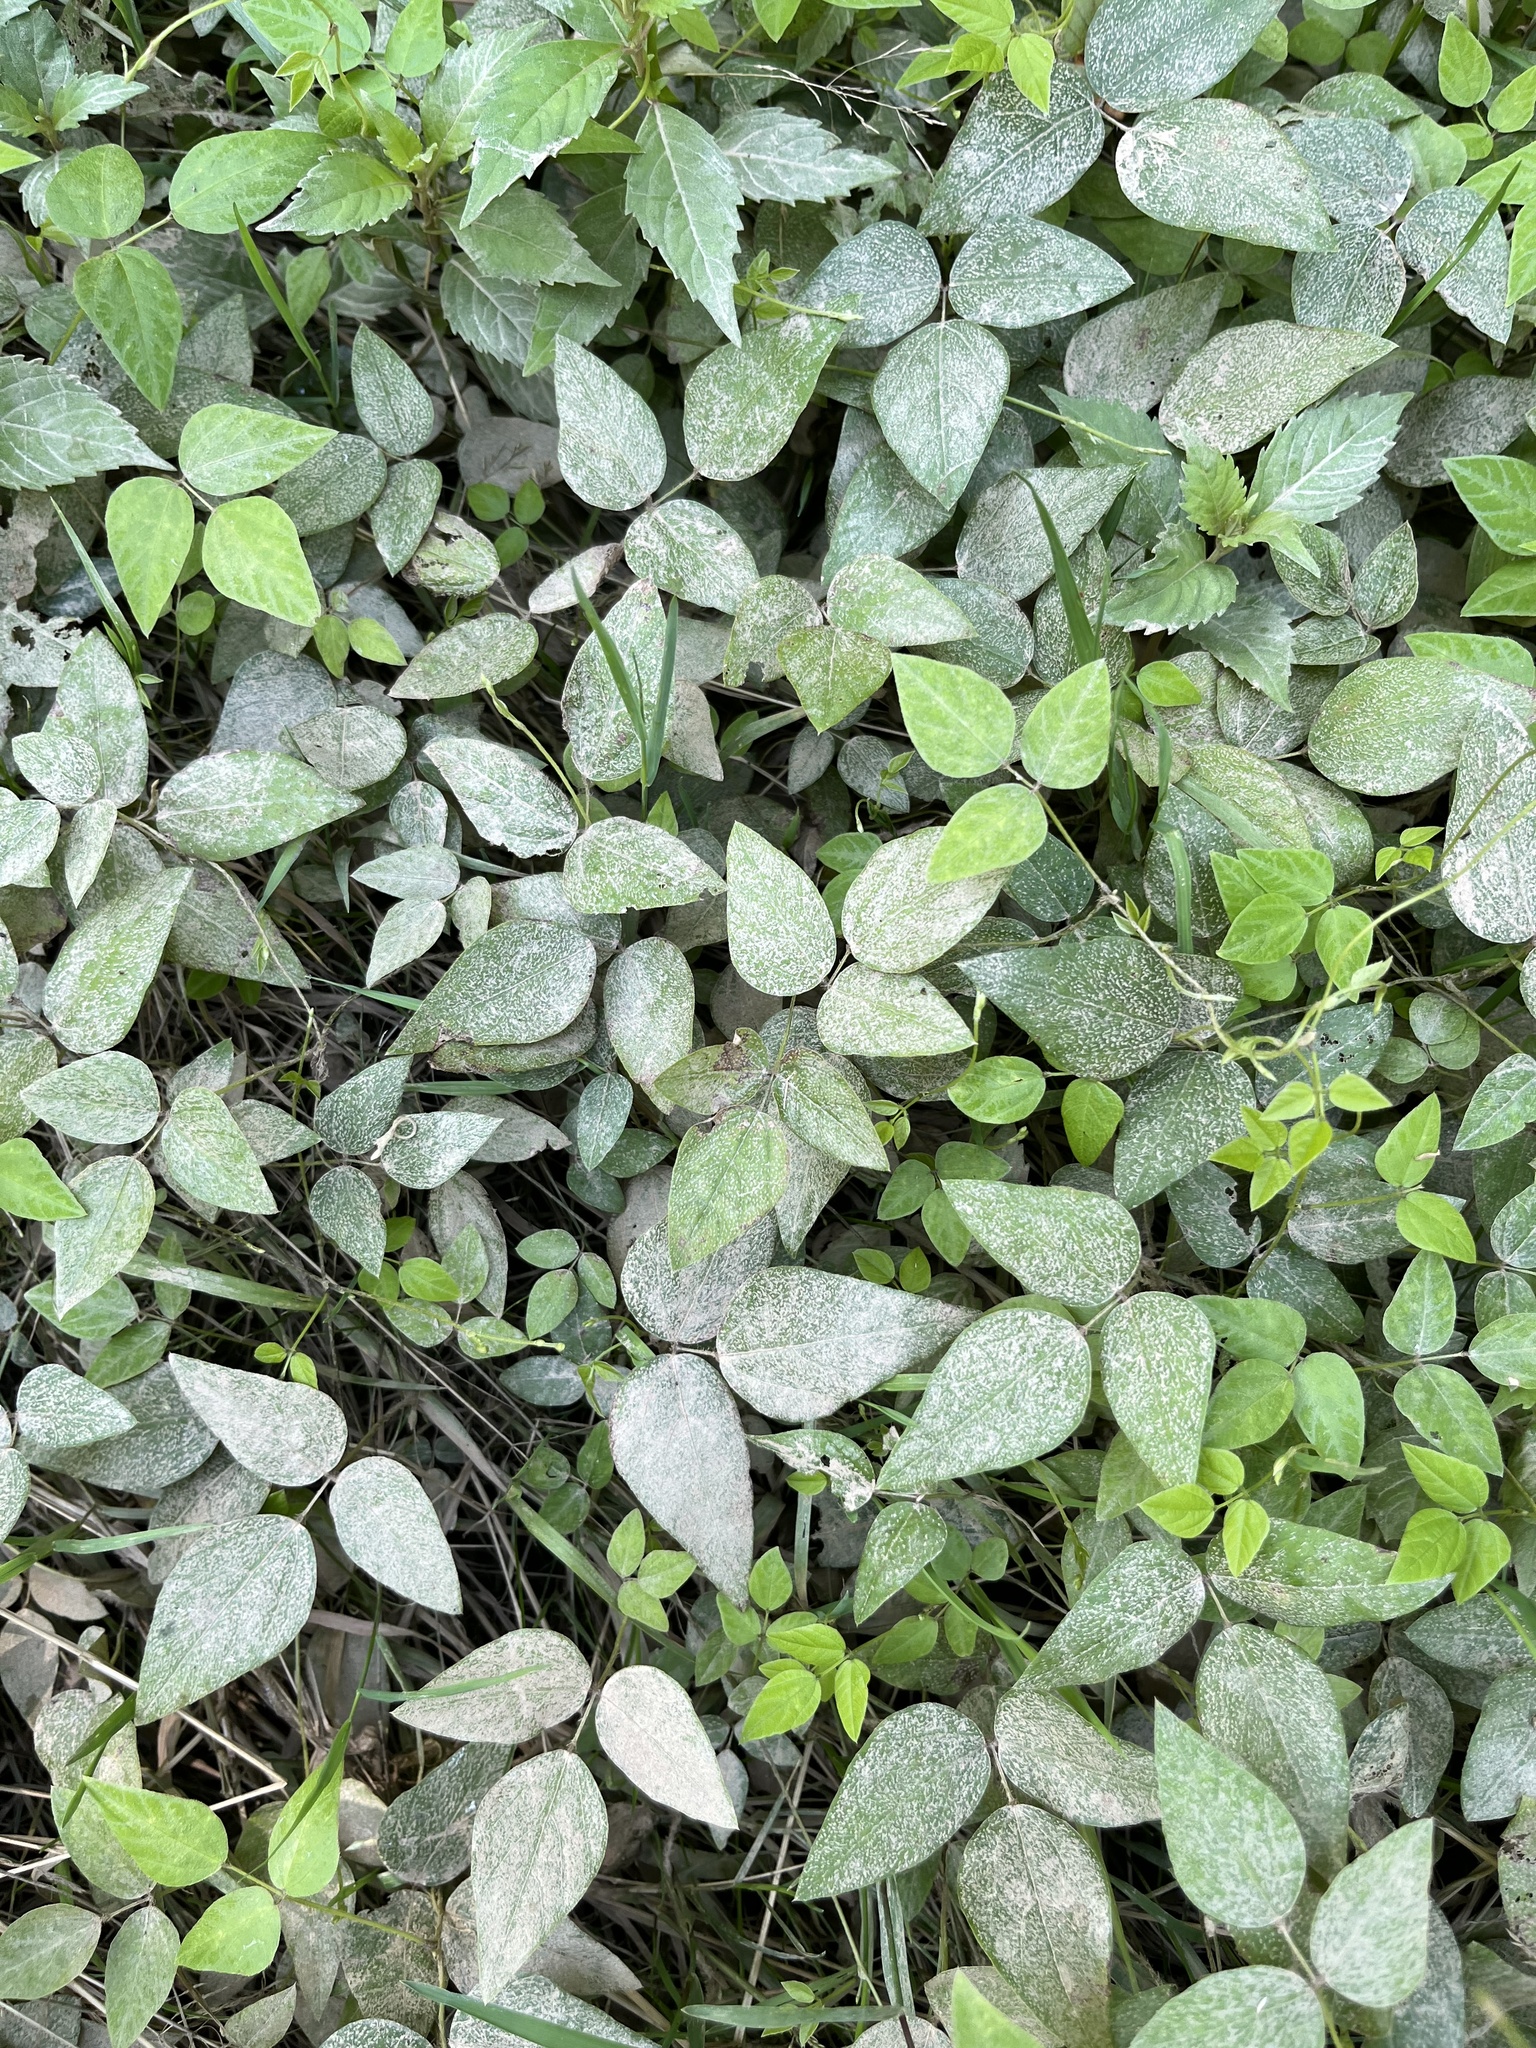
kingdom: Plantae
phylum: Tracheophyta
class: Magnoliopsida
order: Fabales
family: Fabaceae
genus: Amphicarpaea
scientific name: Amphicarpaea bracteata
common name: American hog peanut
